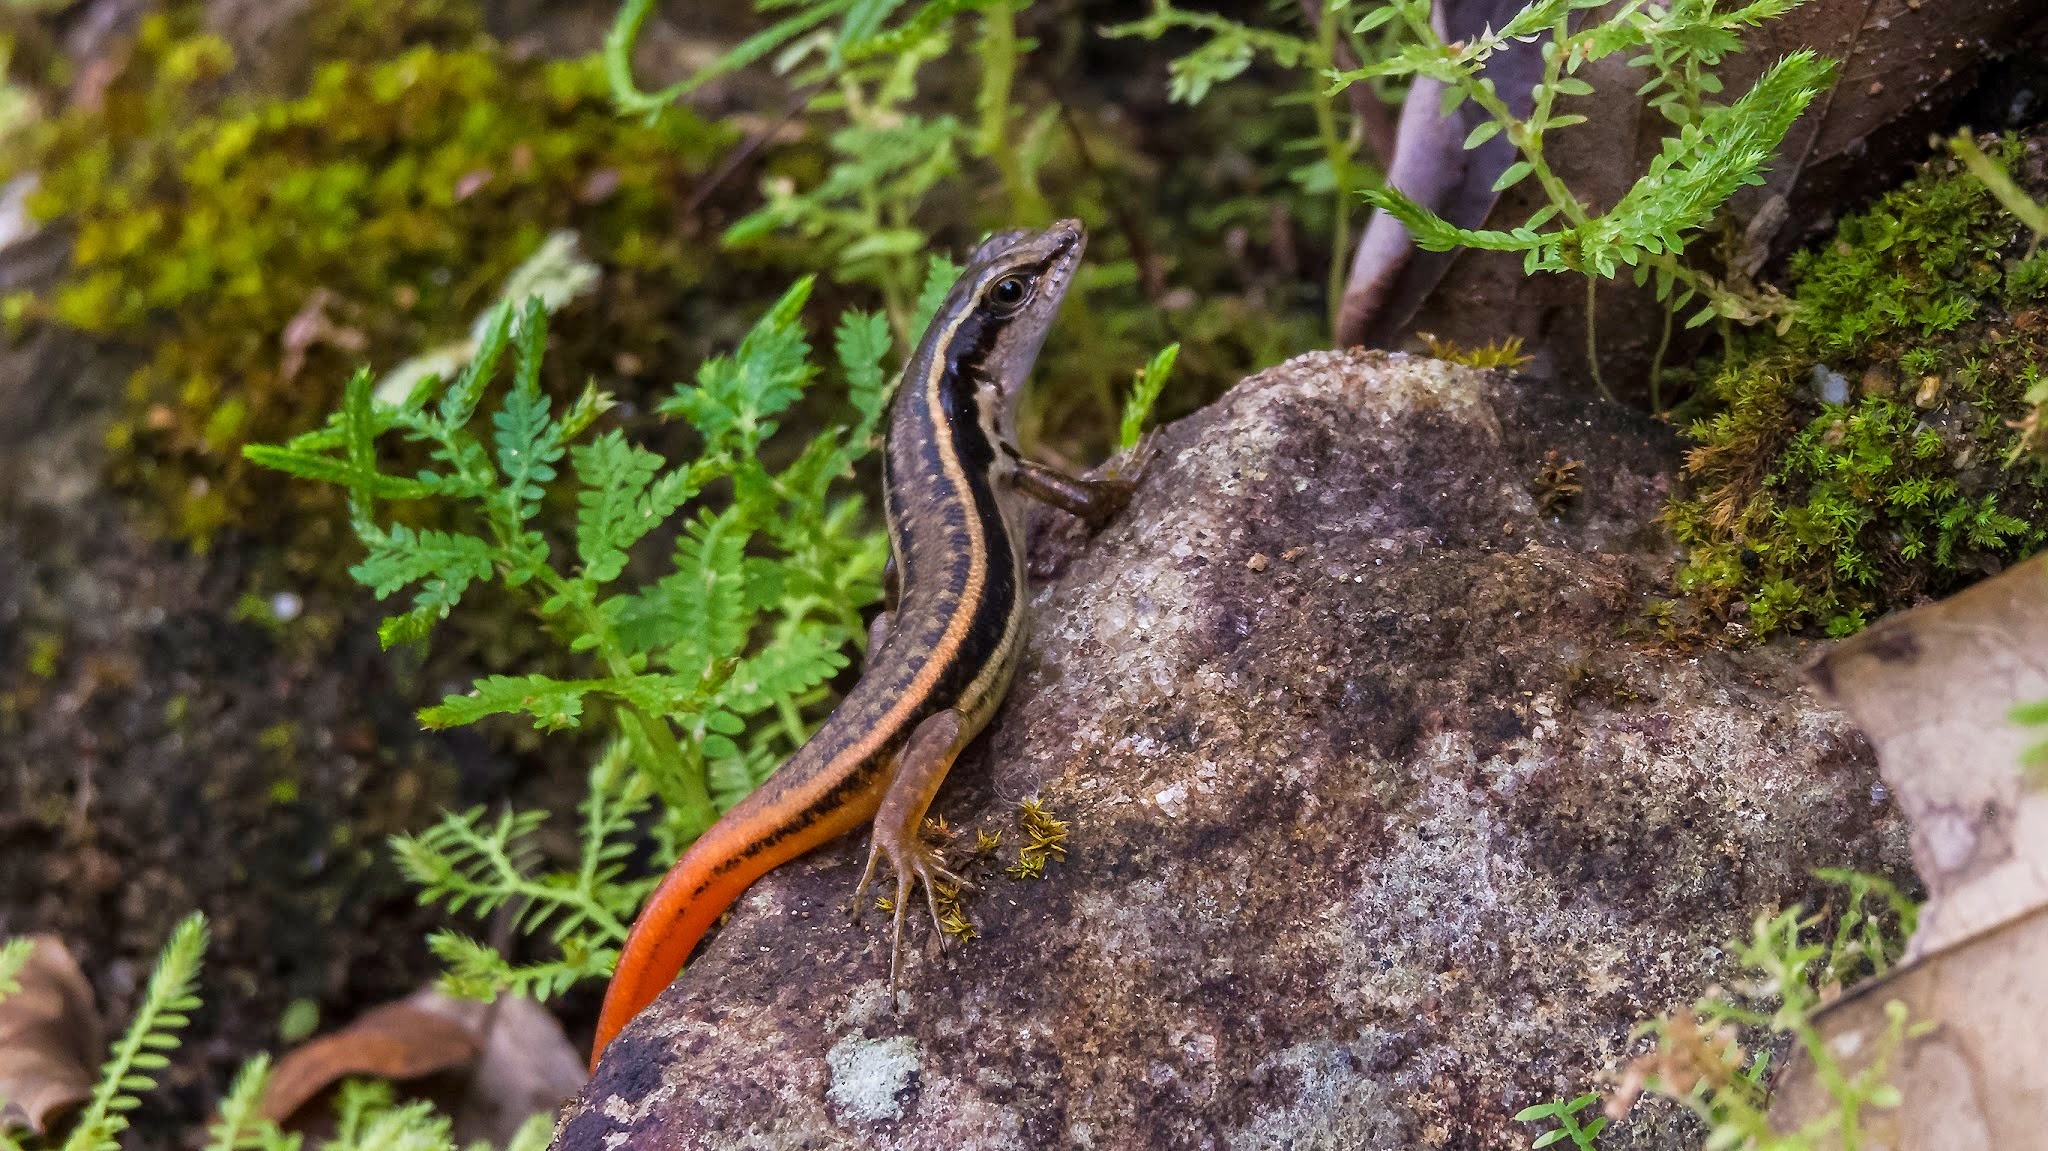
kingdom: Animalia
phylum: Chordata
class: Squamata
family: Scincidae
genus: Sphenomorphus
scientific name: Sphenomorphus dussumieri
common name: Dussumier's forest skink
